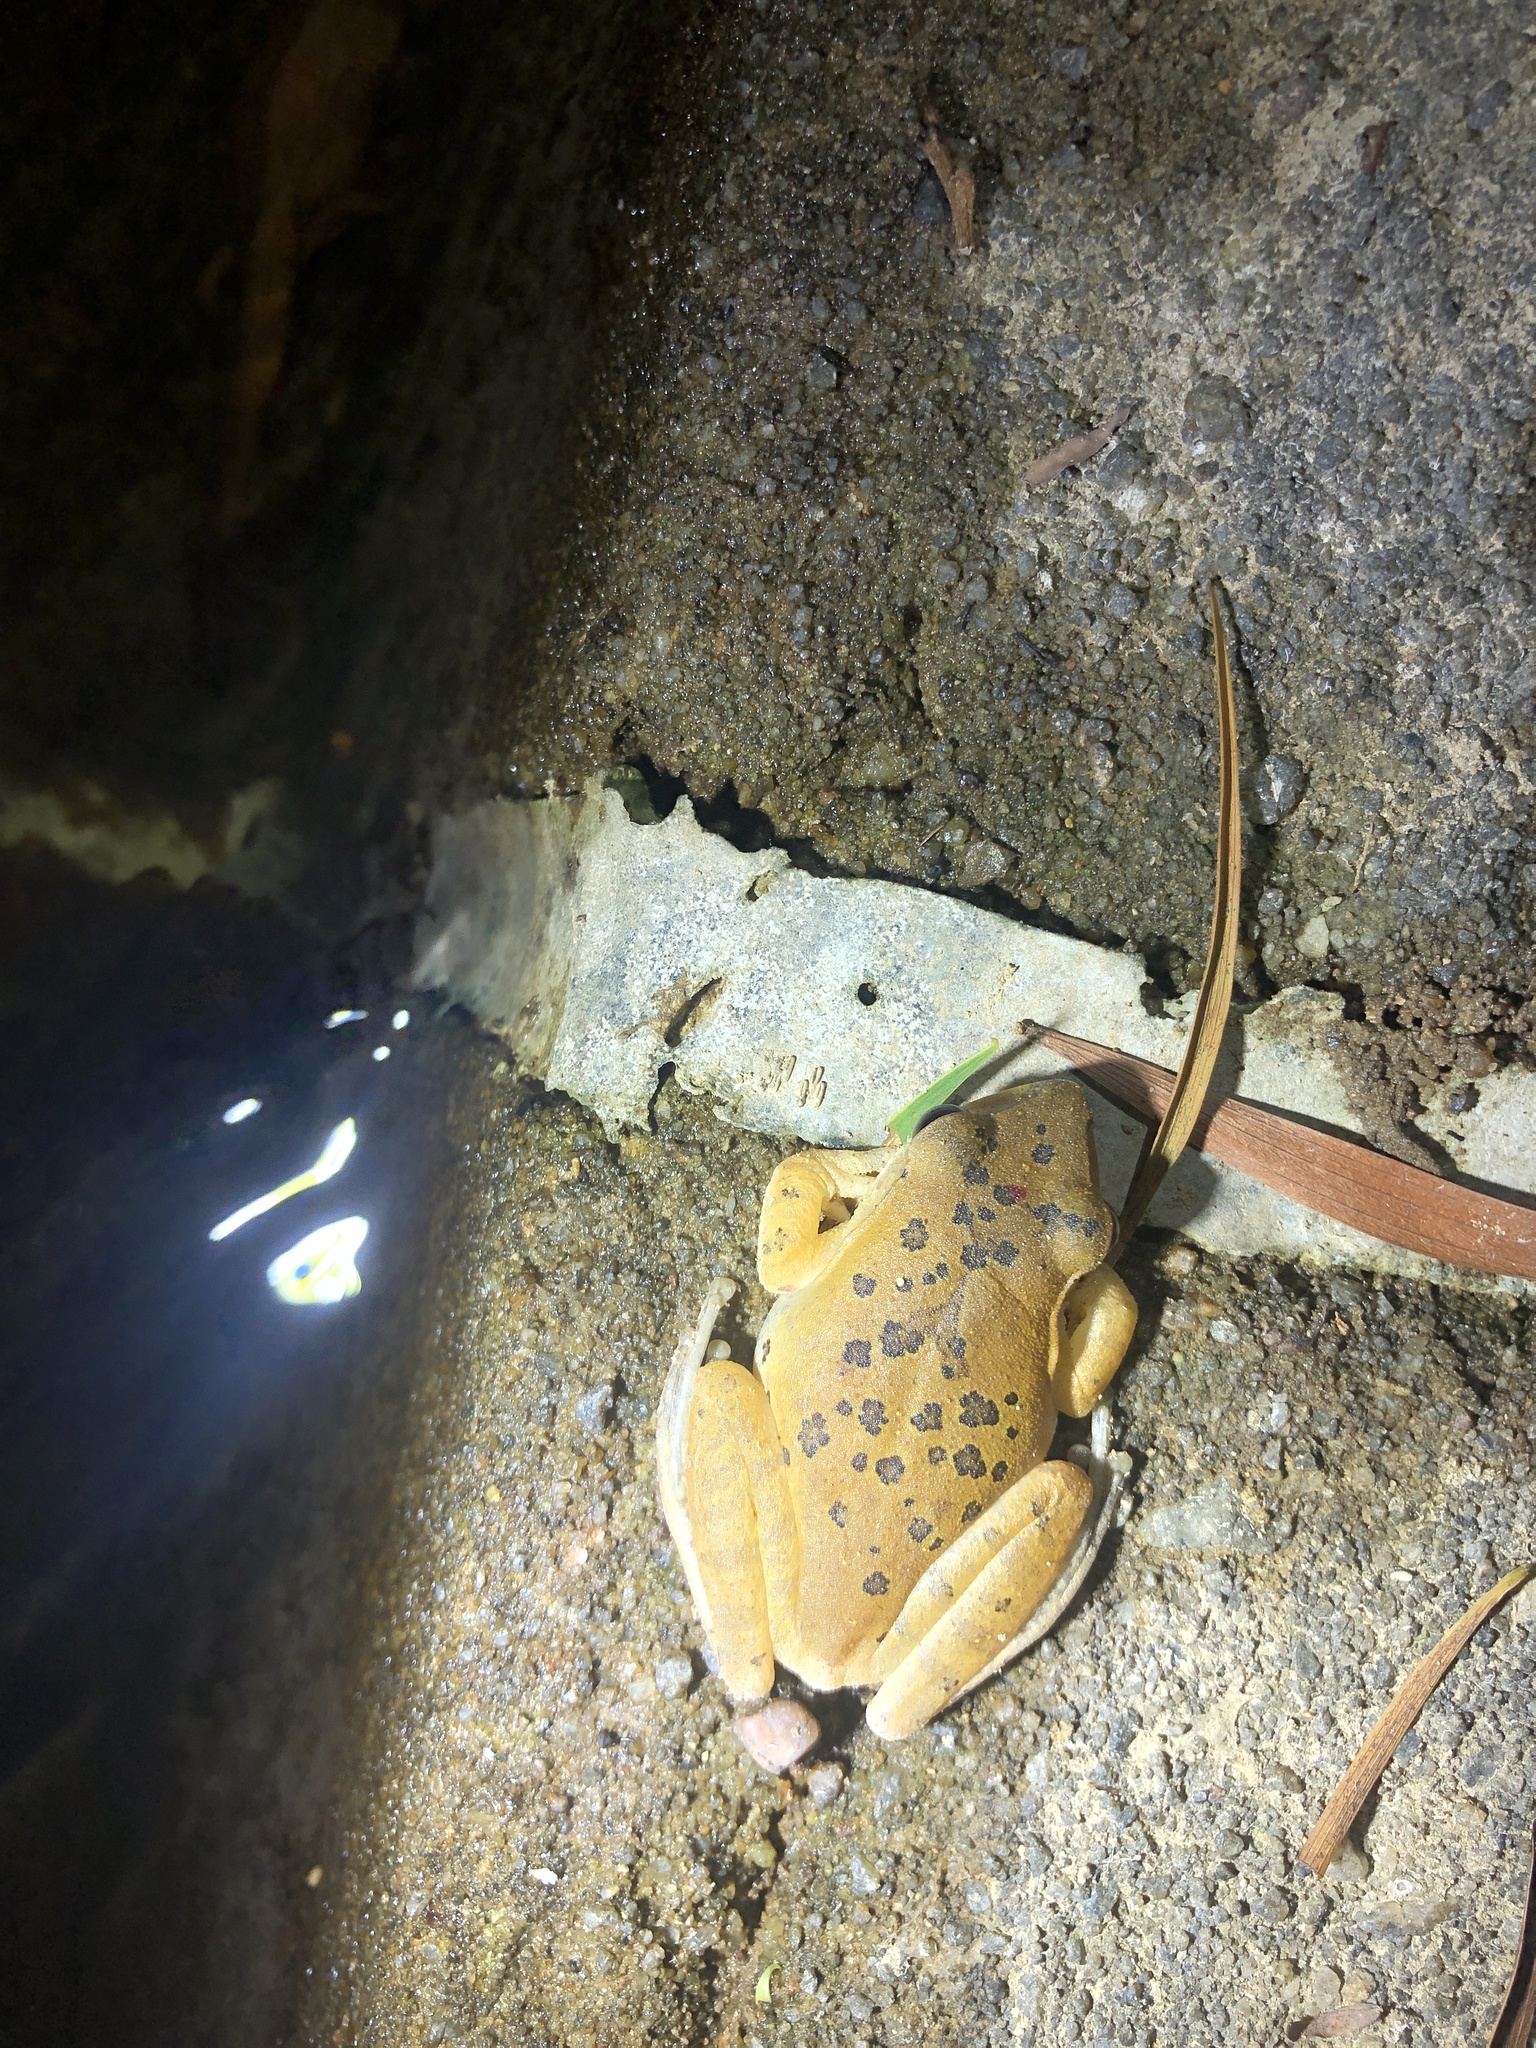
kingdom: Animalia
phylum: Chordata
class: Amphibia
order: Anura
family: Rhacophoridae
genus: Polypedates
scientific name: Polypedates megacephalus
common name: Hong kong whipping frog
